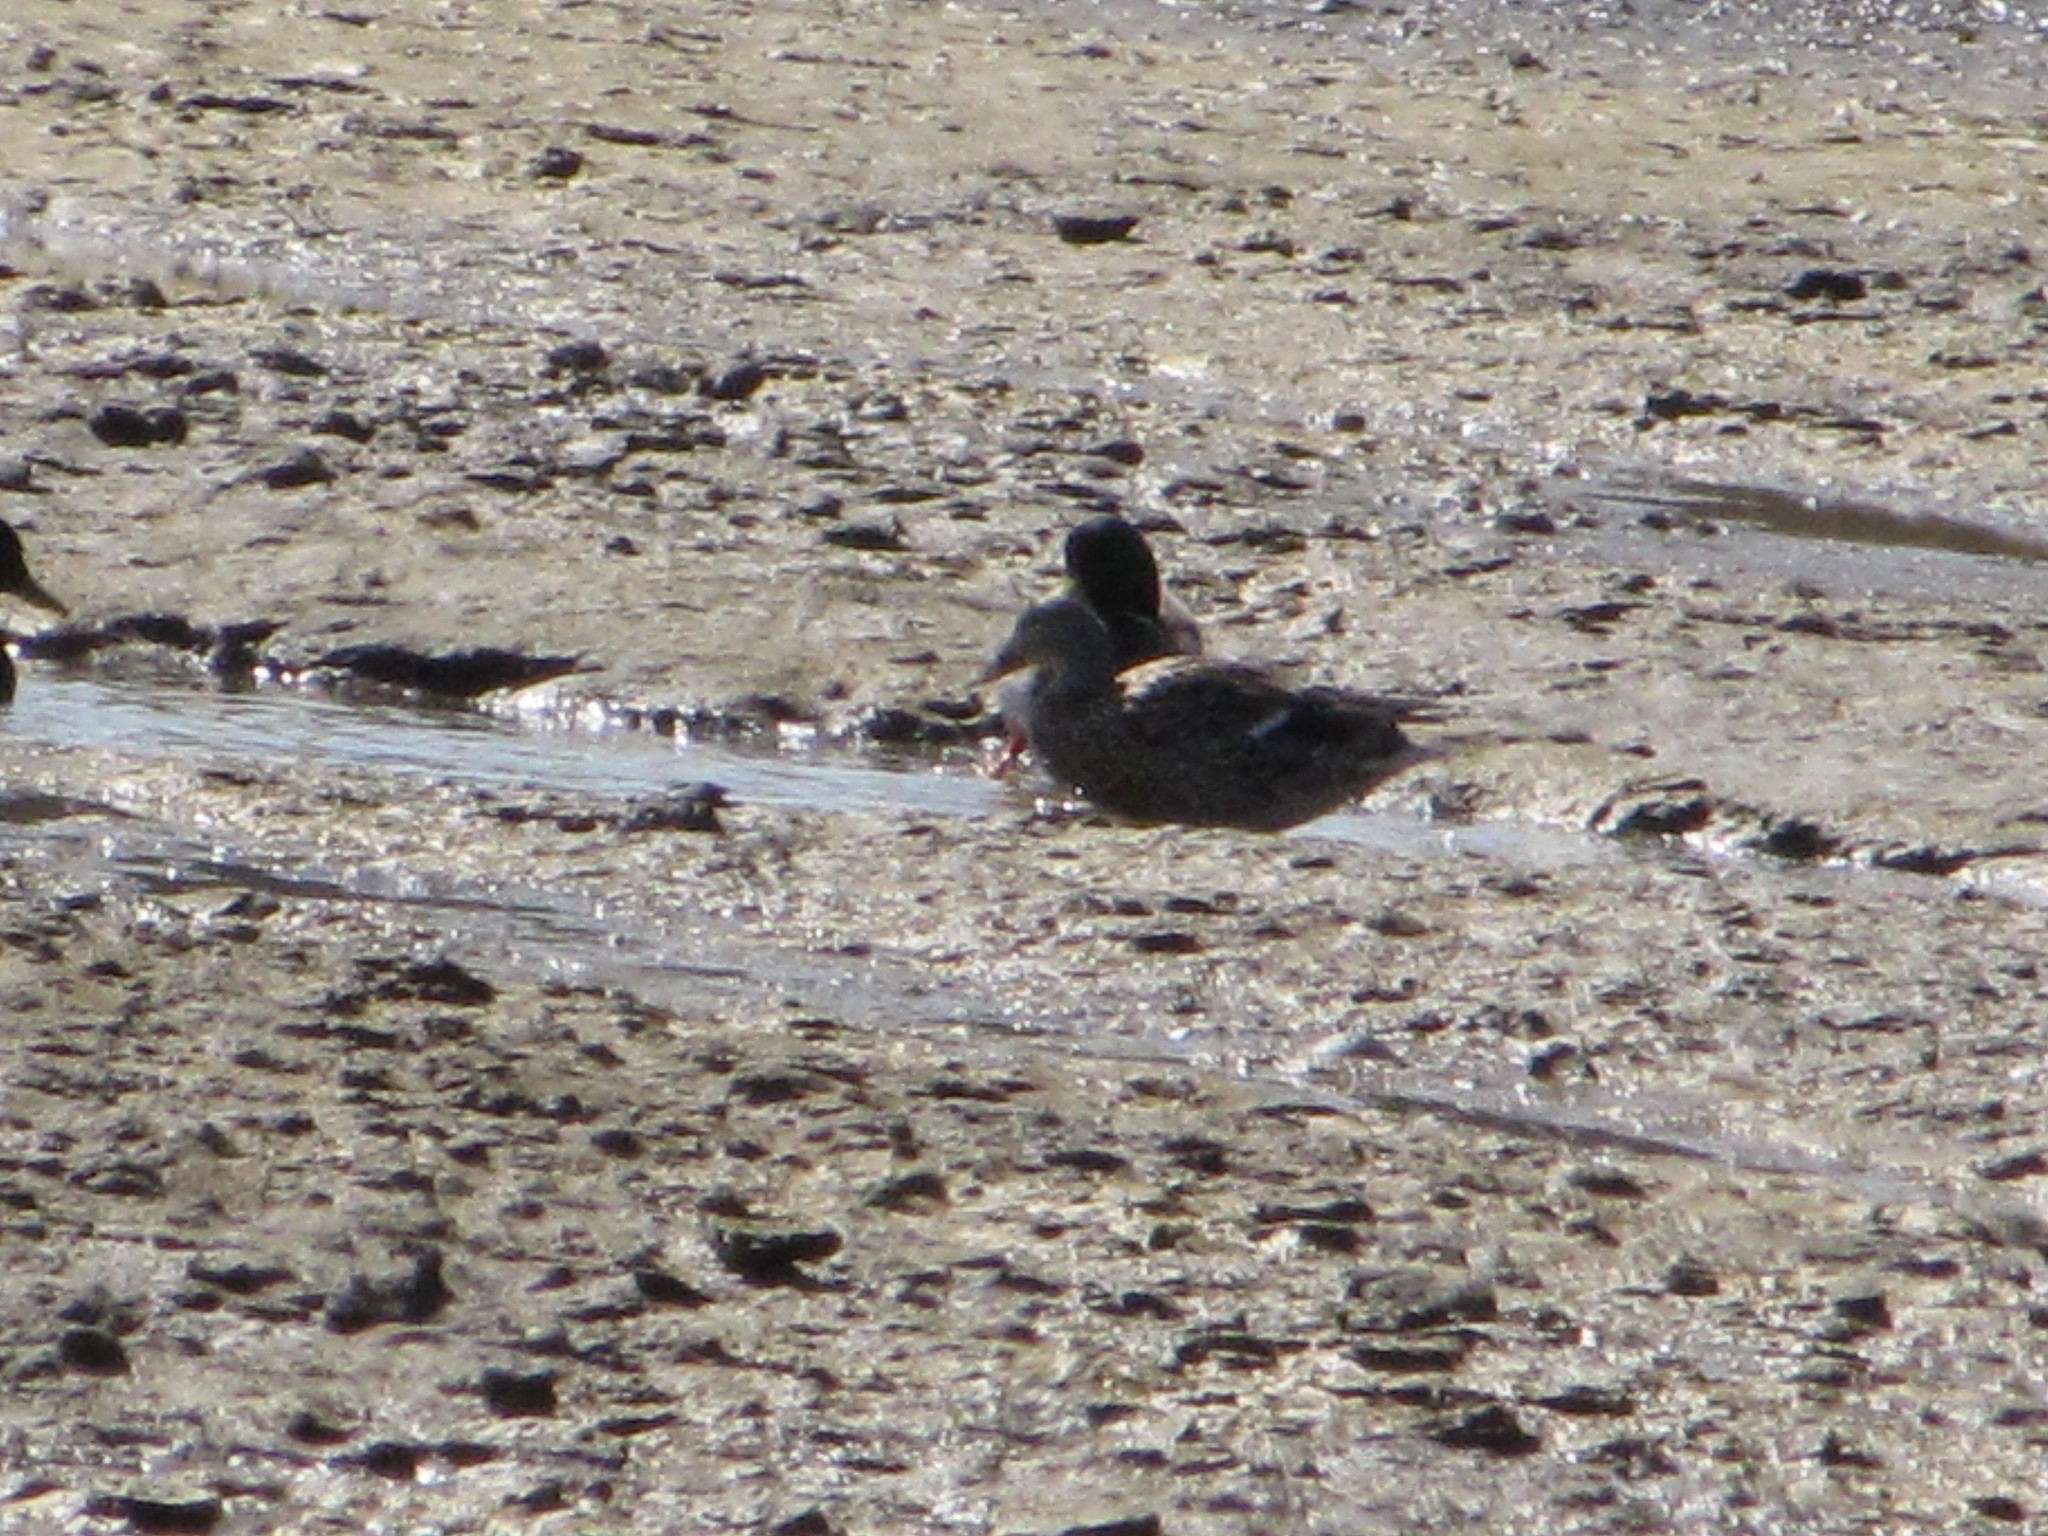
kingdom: Animalia
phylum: Chordata
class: Aves
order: Anseriformes
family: Anatidae
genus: Anas
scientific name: Anas platyrhynchos
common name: Mallard
